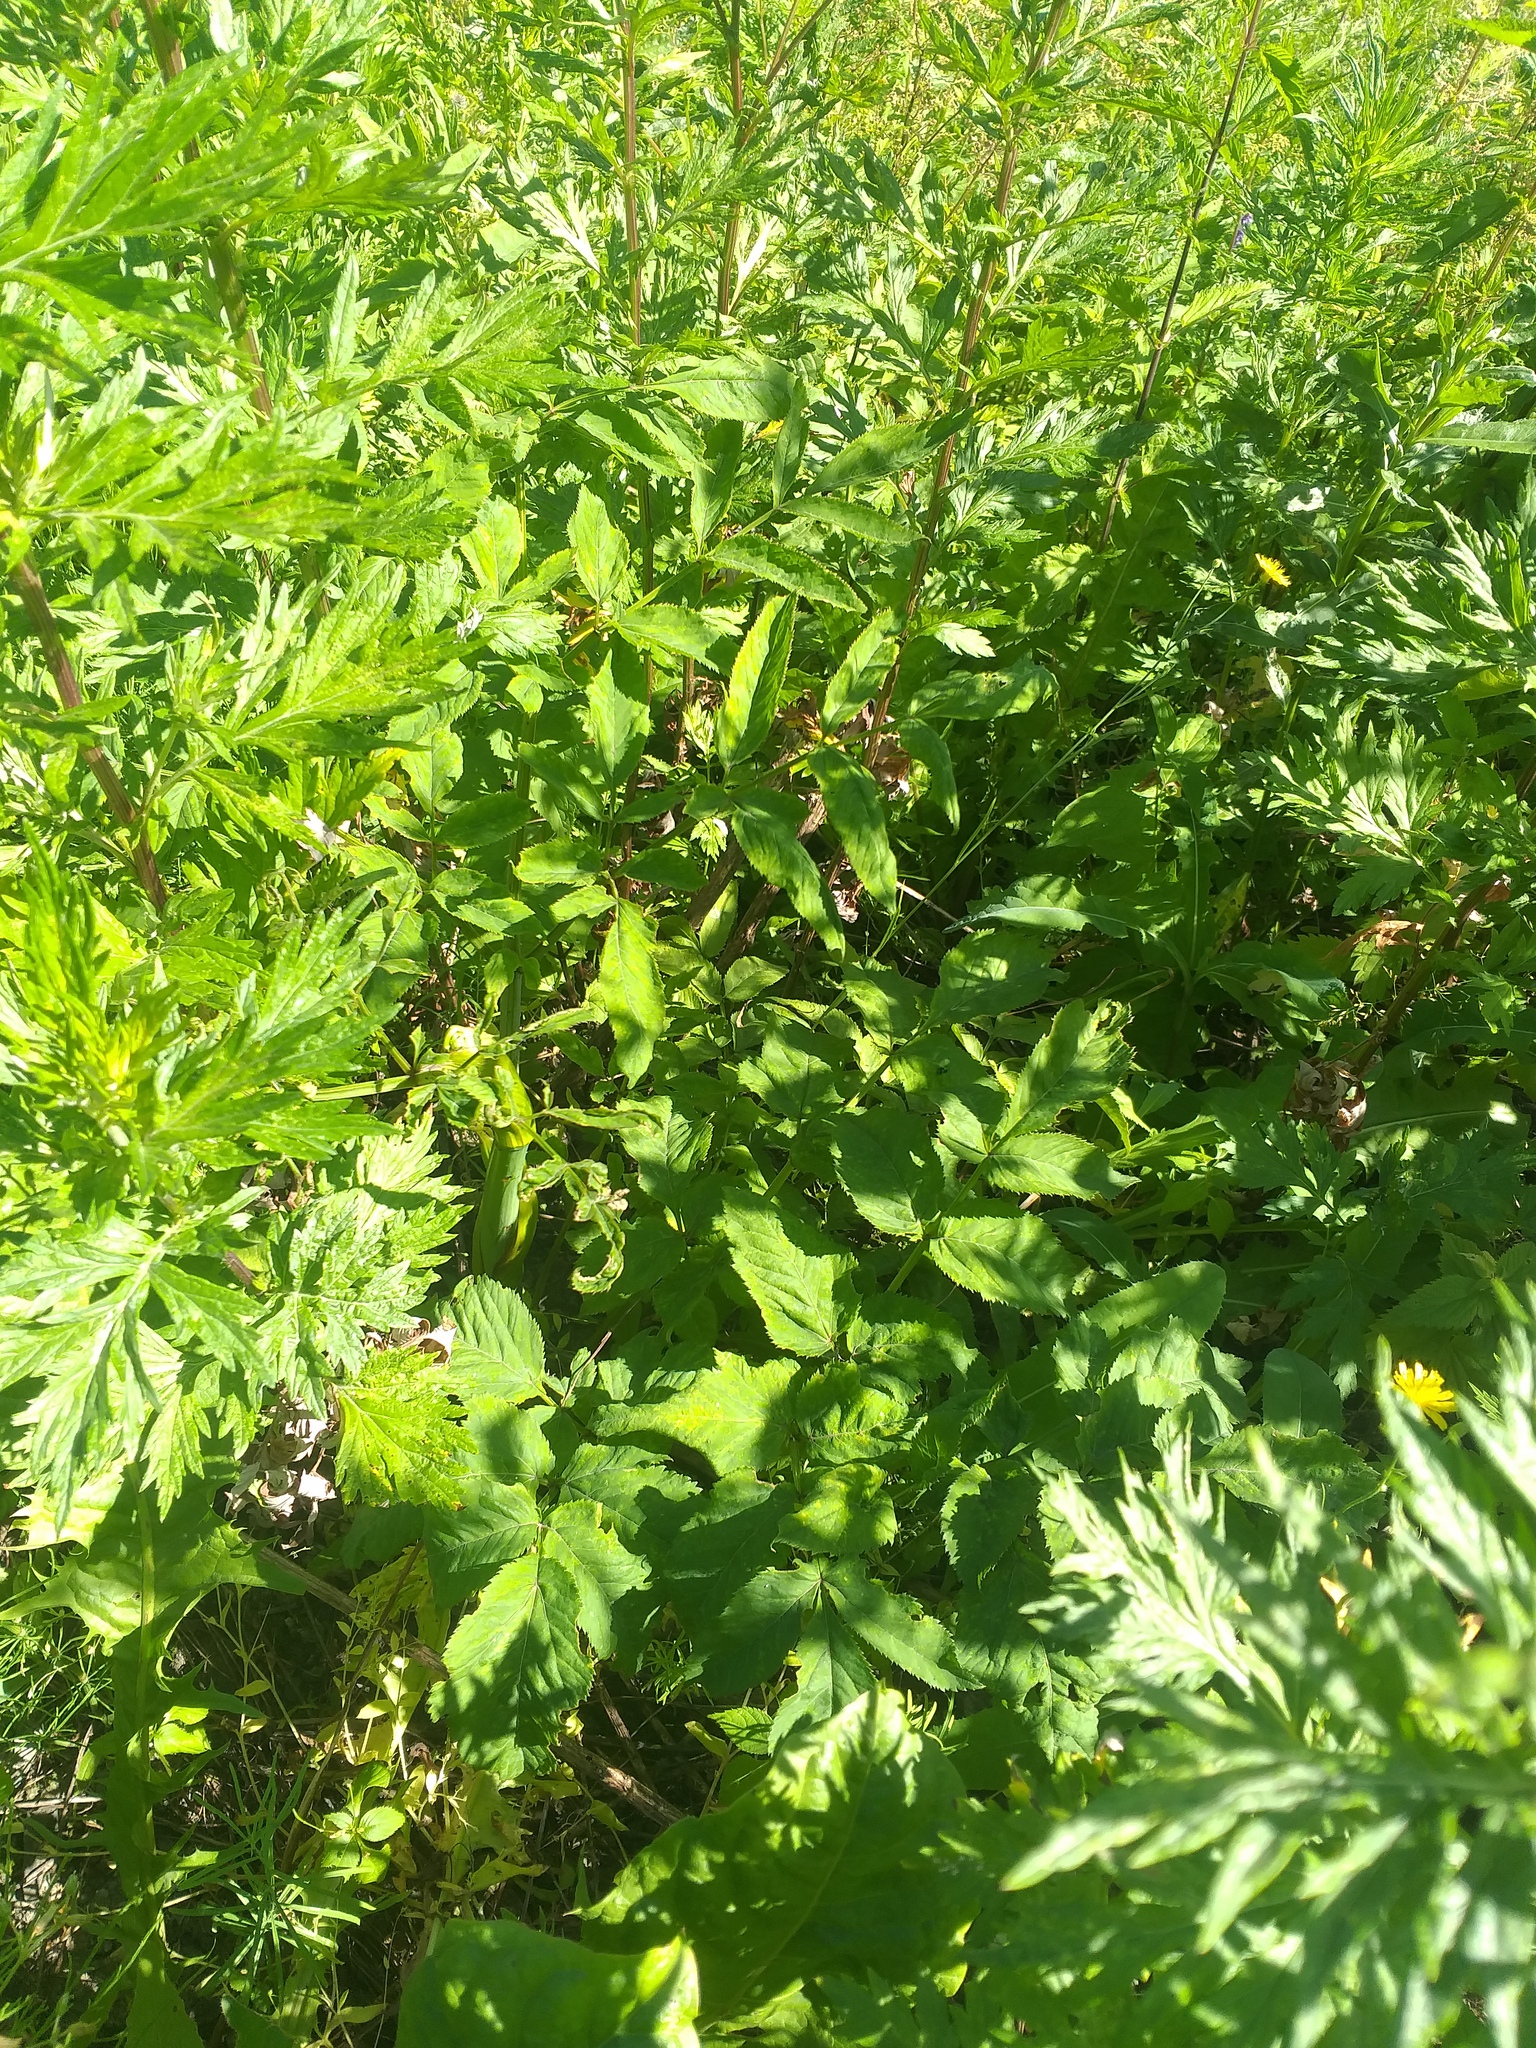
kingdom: Plantae
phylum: Tracheophyta
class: Magnoliopsida
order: Apiales
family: Apiaceae
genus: Angelica
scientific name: Angelica sylvestris
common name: Wild angelica
